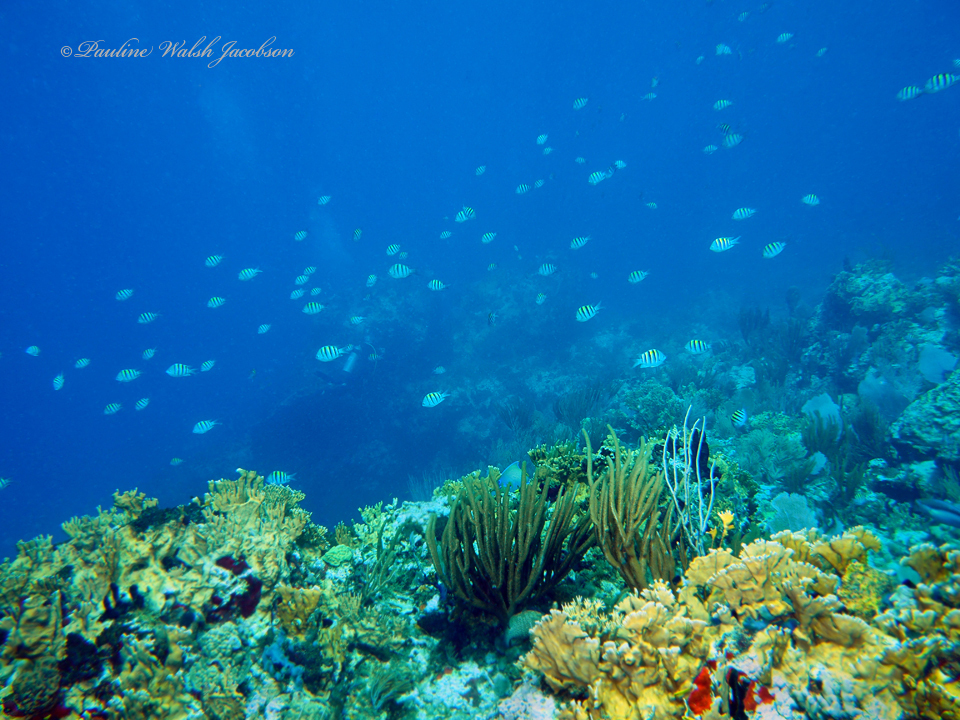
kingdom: Animalia
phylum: Chordata
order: Perciformes
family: Pomacentridae
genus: Abudefduf
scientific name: Abudefduf saxatilis
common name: Sergeant major
